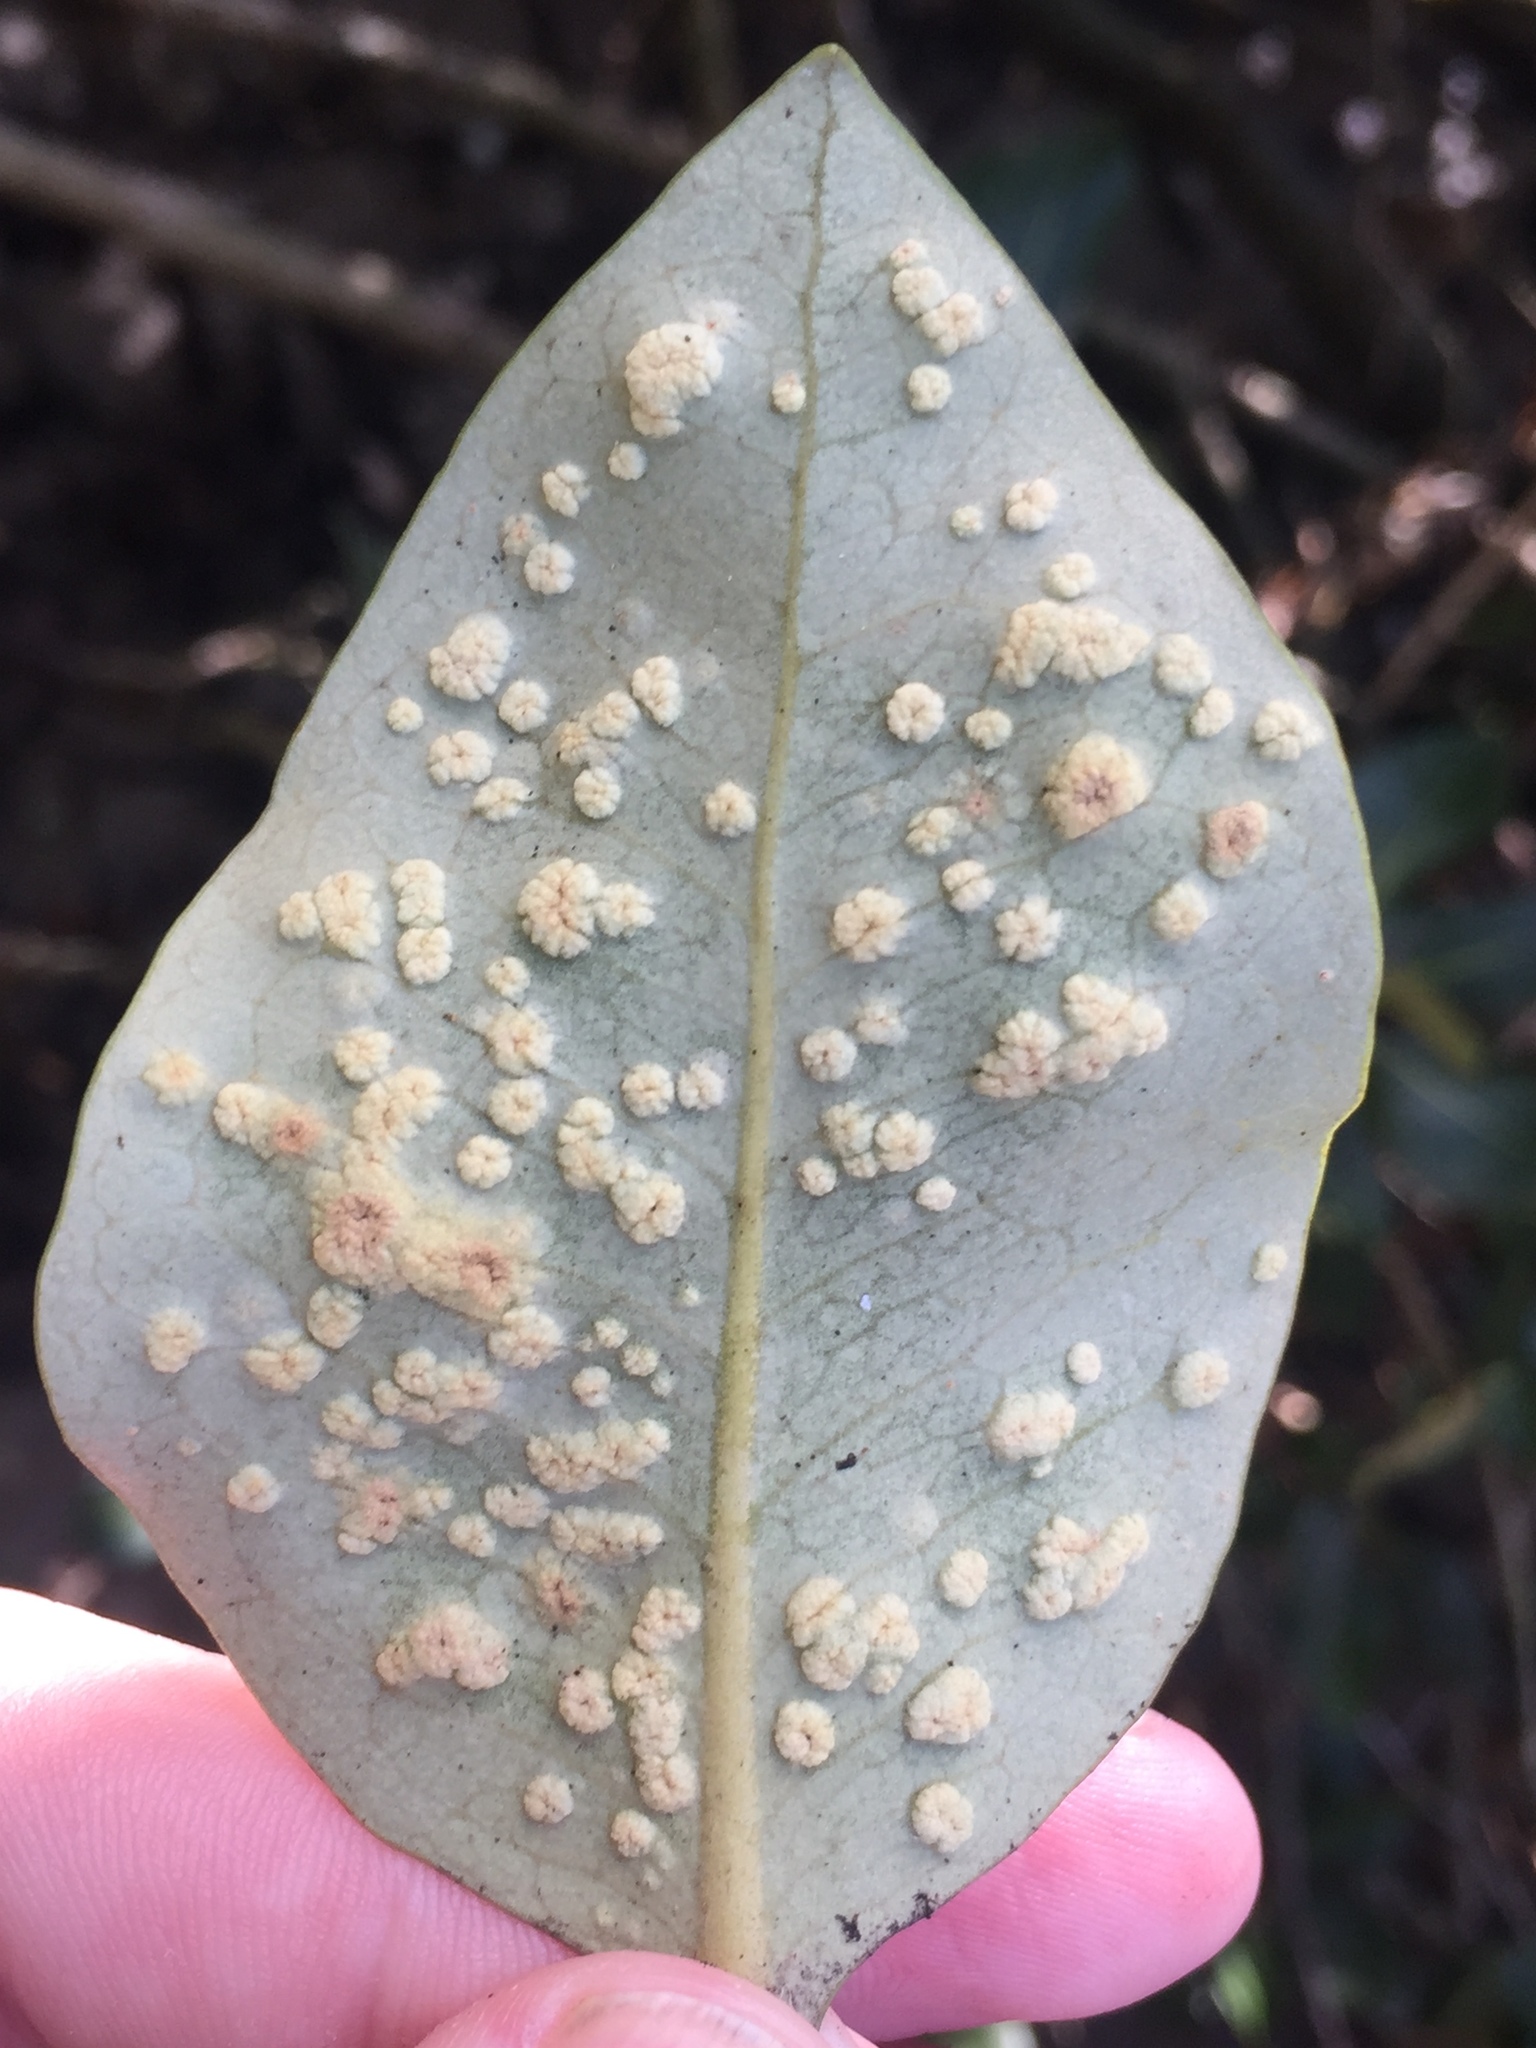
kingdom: Animalia
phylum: Arthropoda
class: Arachnida
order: Trombidiformes
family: Eriophyidae
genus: Acalitus
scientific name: Acalitus
